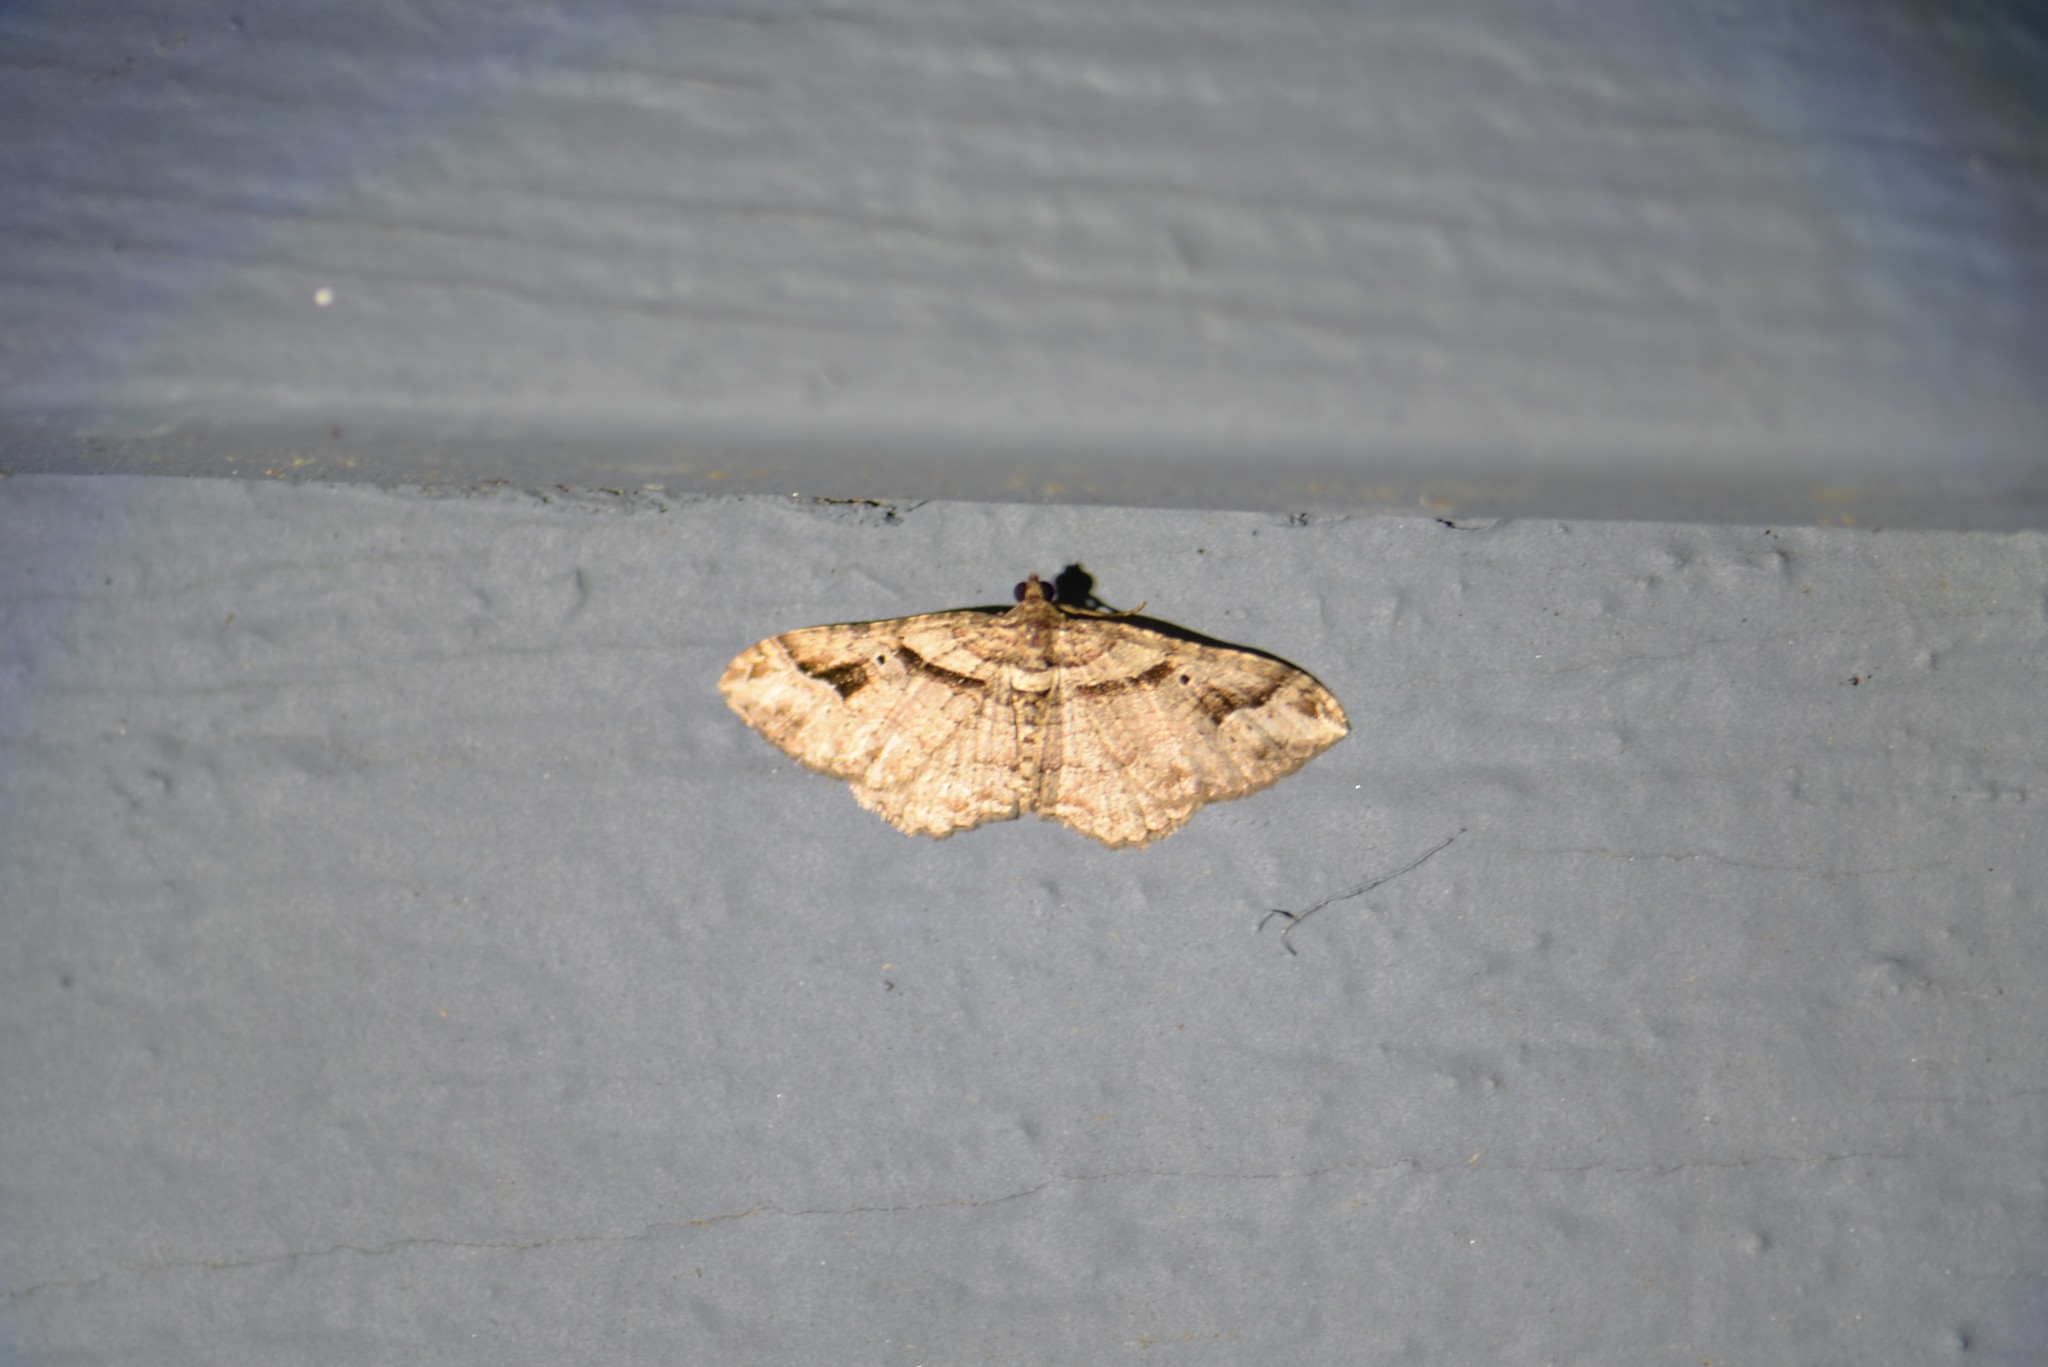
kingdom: Animalia
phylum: Arthropoda
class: Insecta
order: Lepidoptera
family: Geometridae
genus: Costaconvexa
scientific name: Costaconvexa centrostrigaria
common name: Bent-line carpet
